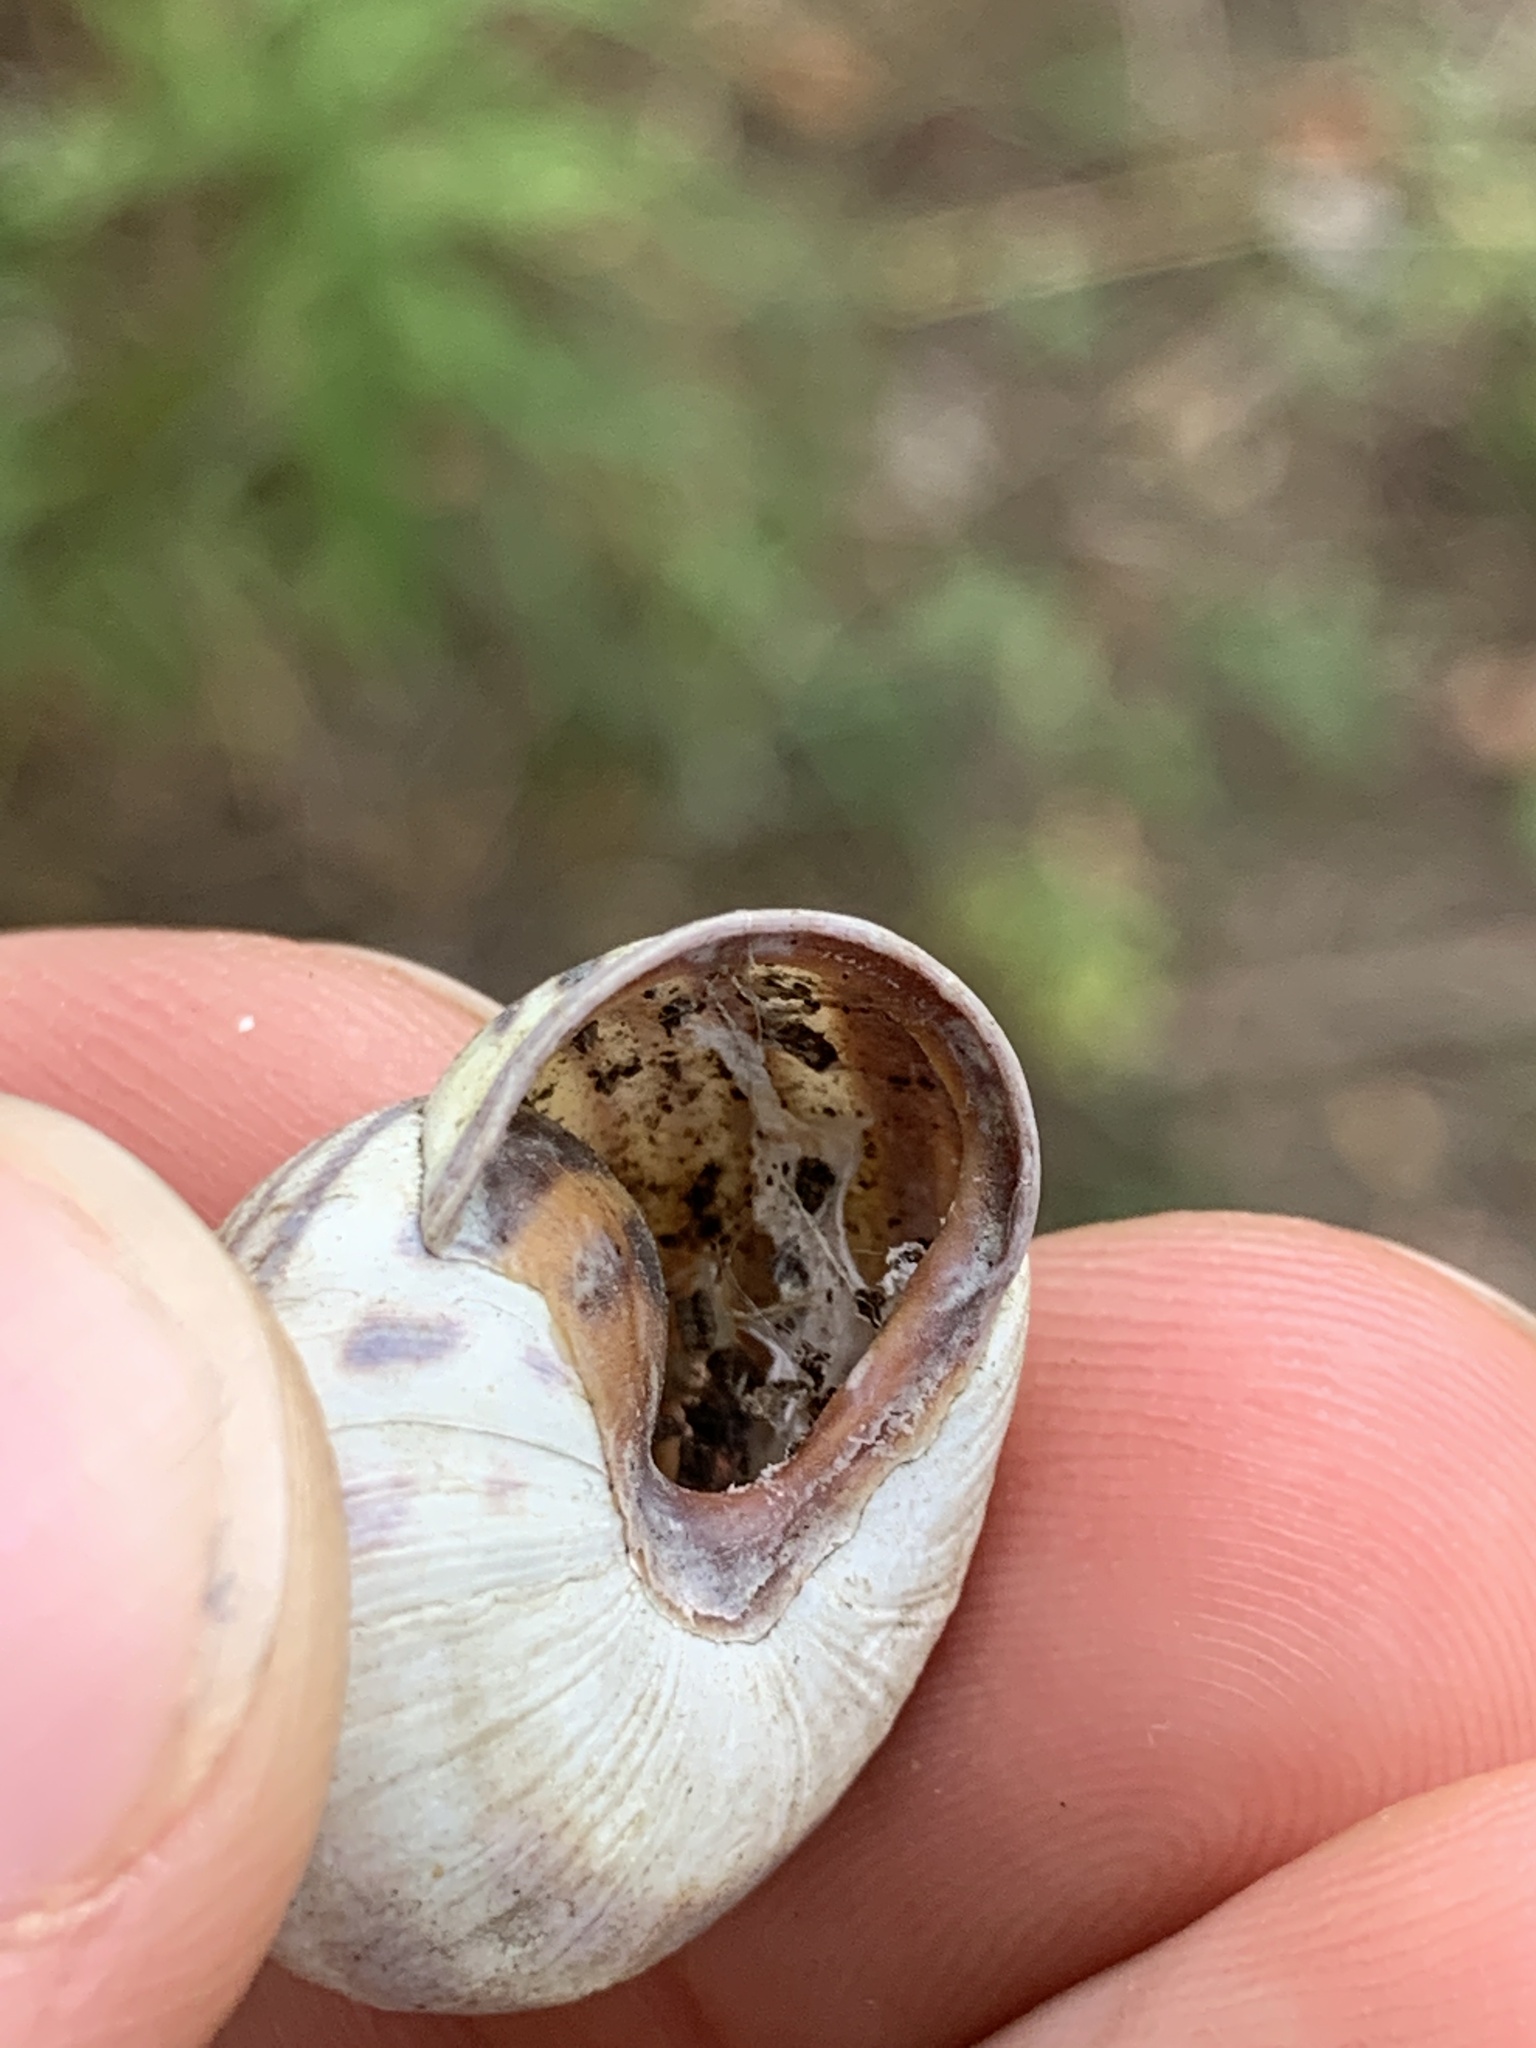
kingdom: Animalia
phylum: Mollusca
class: Gastropoda
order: Stylommatophora
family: Helicidae
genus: Cepaea
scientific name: Cepaea nemoralis
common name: Grovesnail
